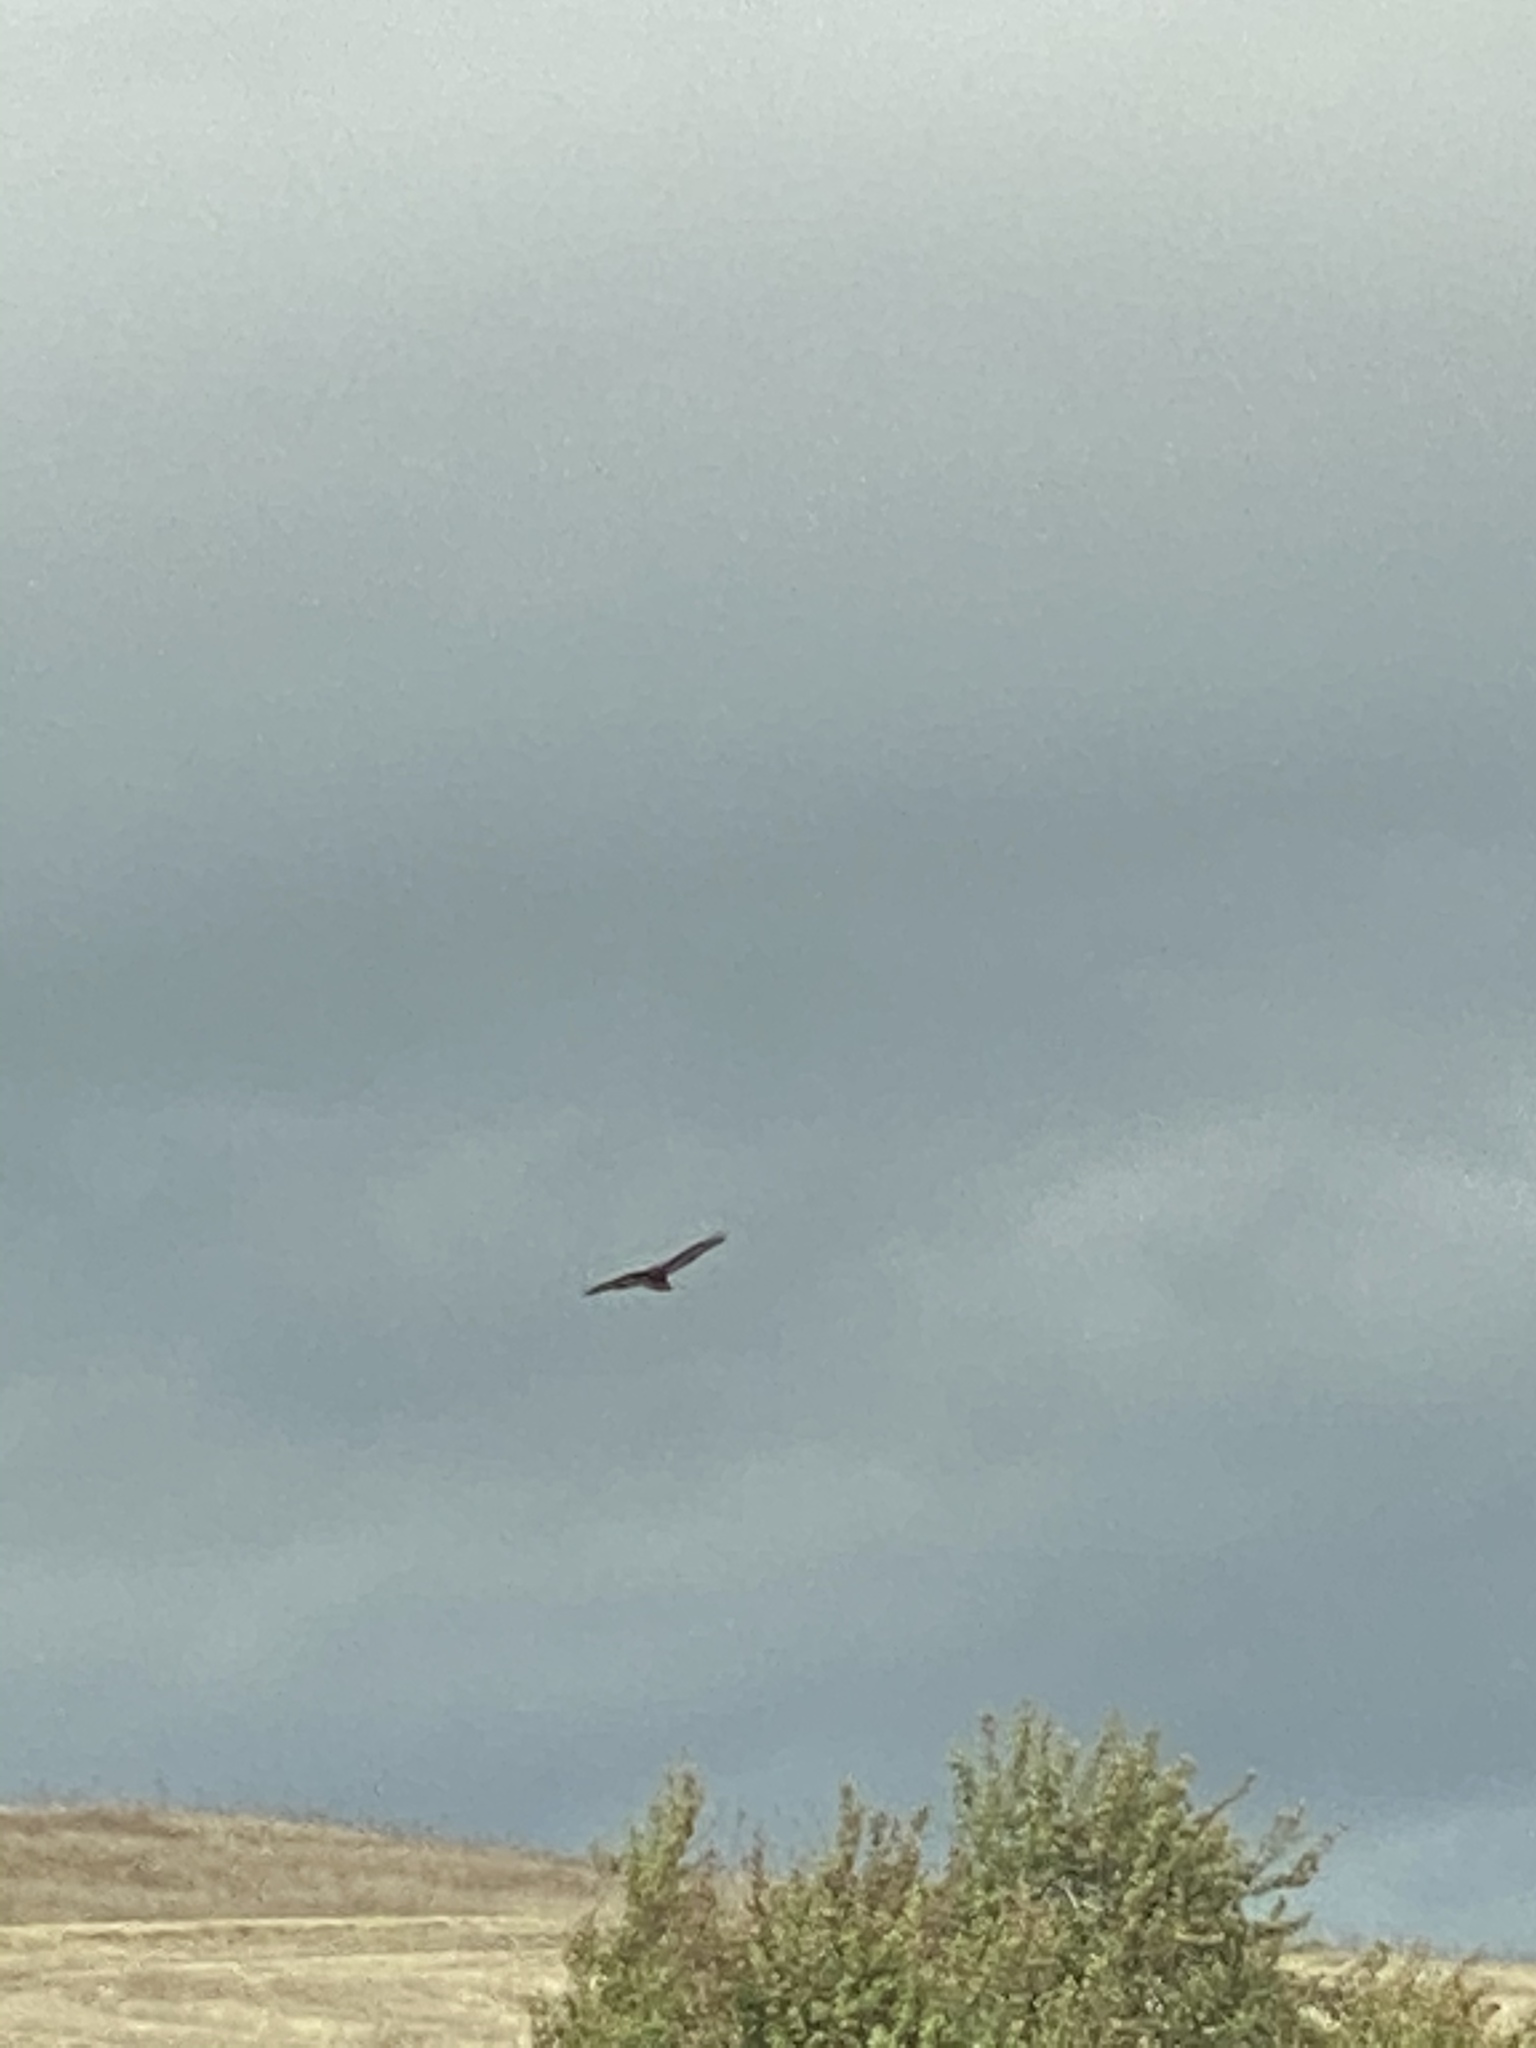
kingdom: Animalia
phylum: Chordata
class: Aves
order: Accipitriformes
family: Accipitridae
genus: Buteo
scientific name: Buteo jamaicensis
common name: Red-tailed hawk
